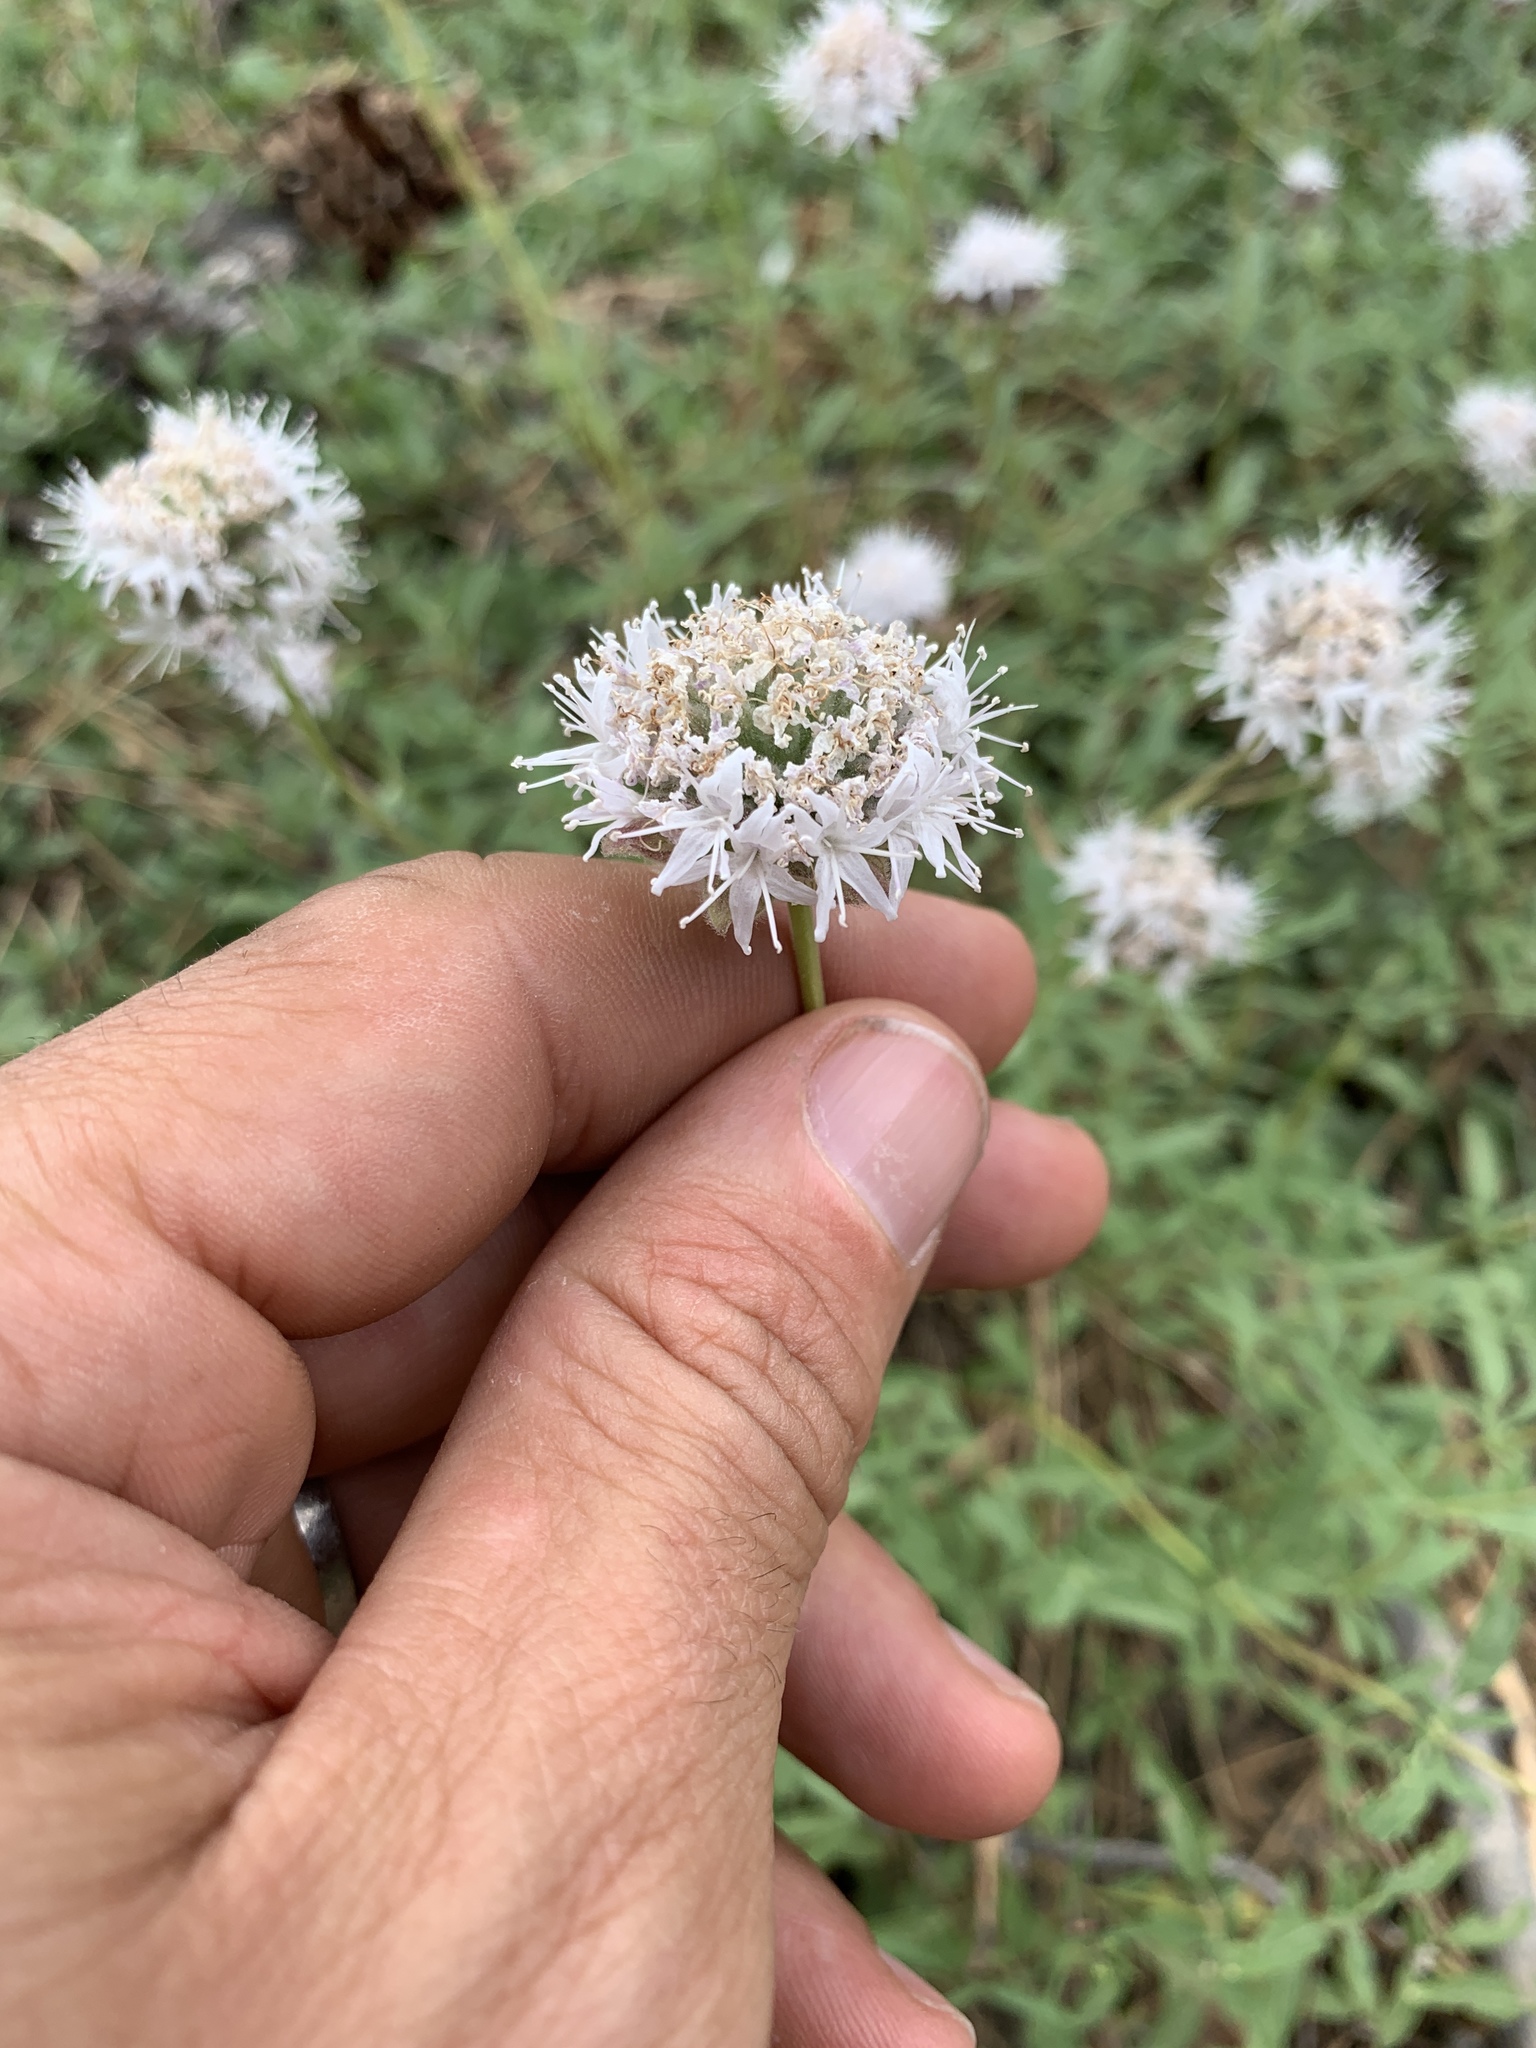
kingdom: Plantae
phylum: Tracheophyta
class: Magnoliopsida
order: Lamiales
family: Lamiaceae
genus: Monardella
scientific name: Monardella odoratissima
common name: Pacific monardella
